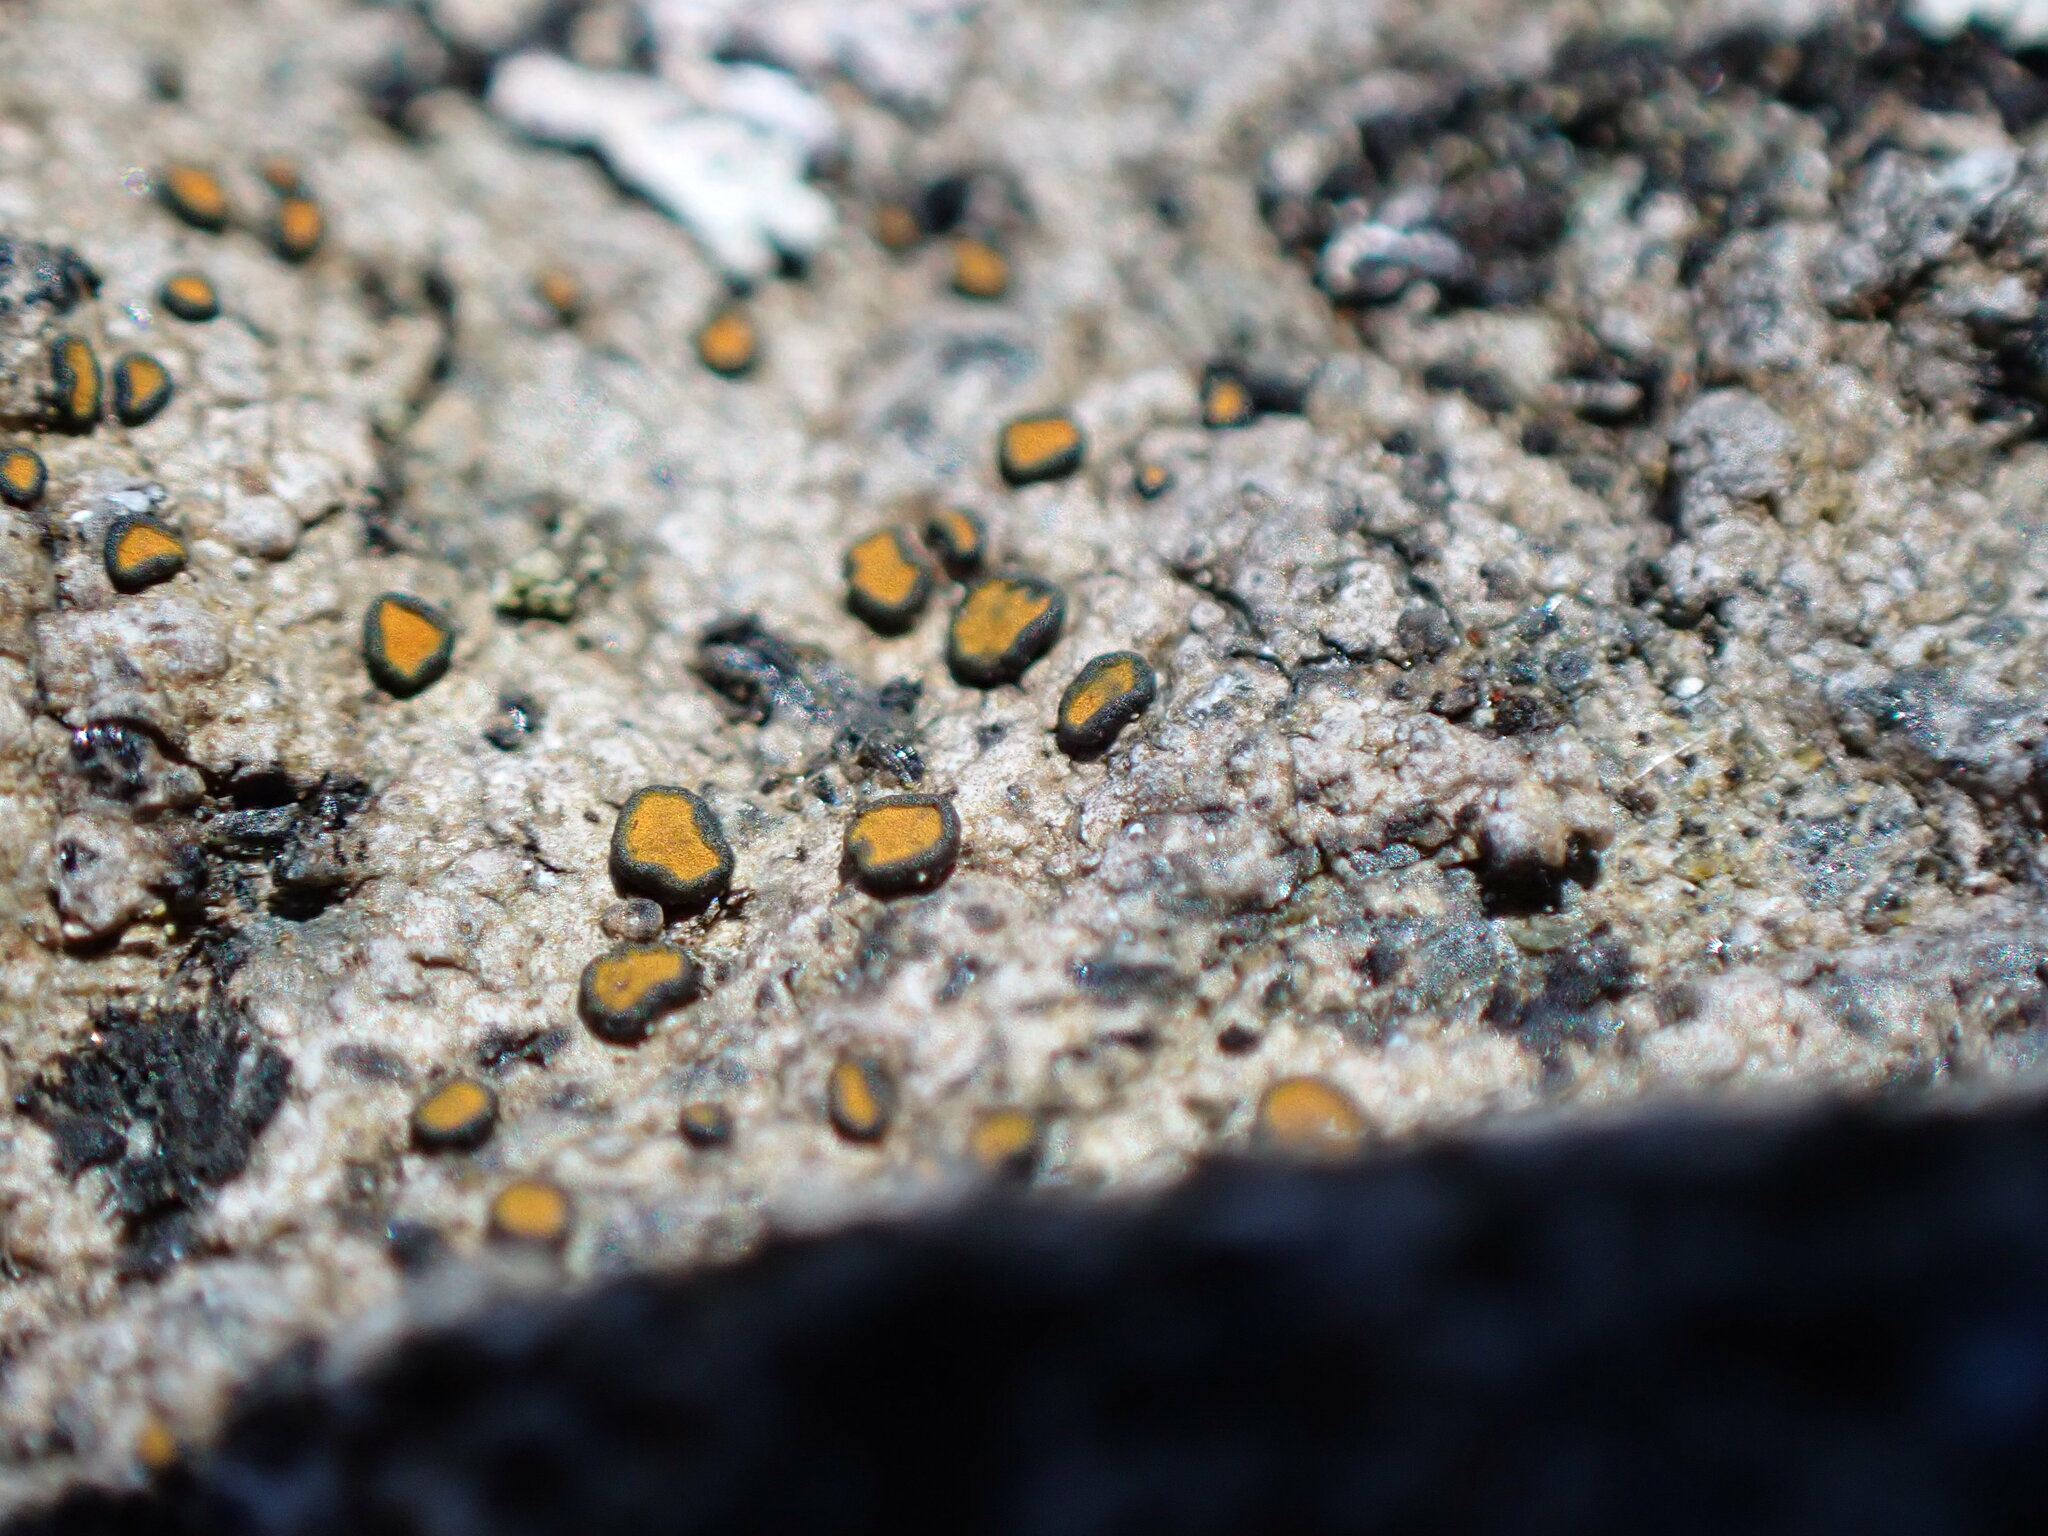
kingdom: Fungi
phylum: Ascomycota
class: Lecanoromycetes
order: Teloschistales
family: Teloschistaceae
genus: Caloplaca
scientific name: Caloplaca litoricola
